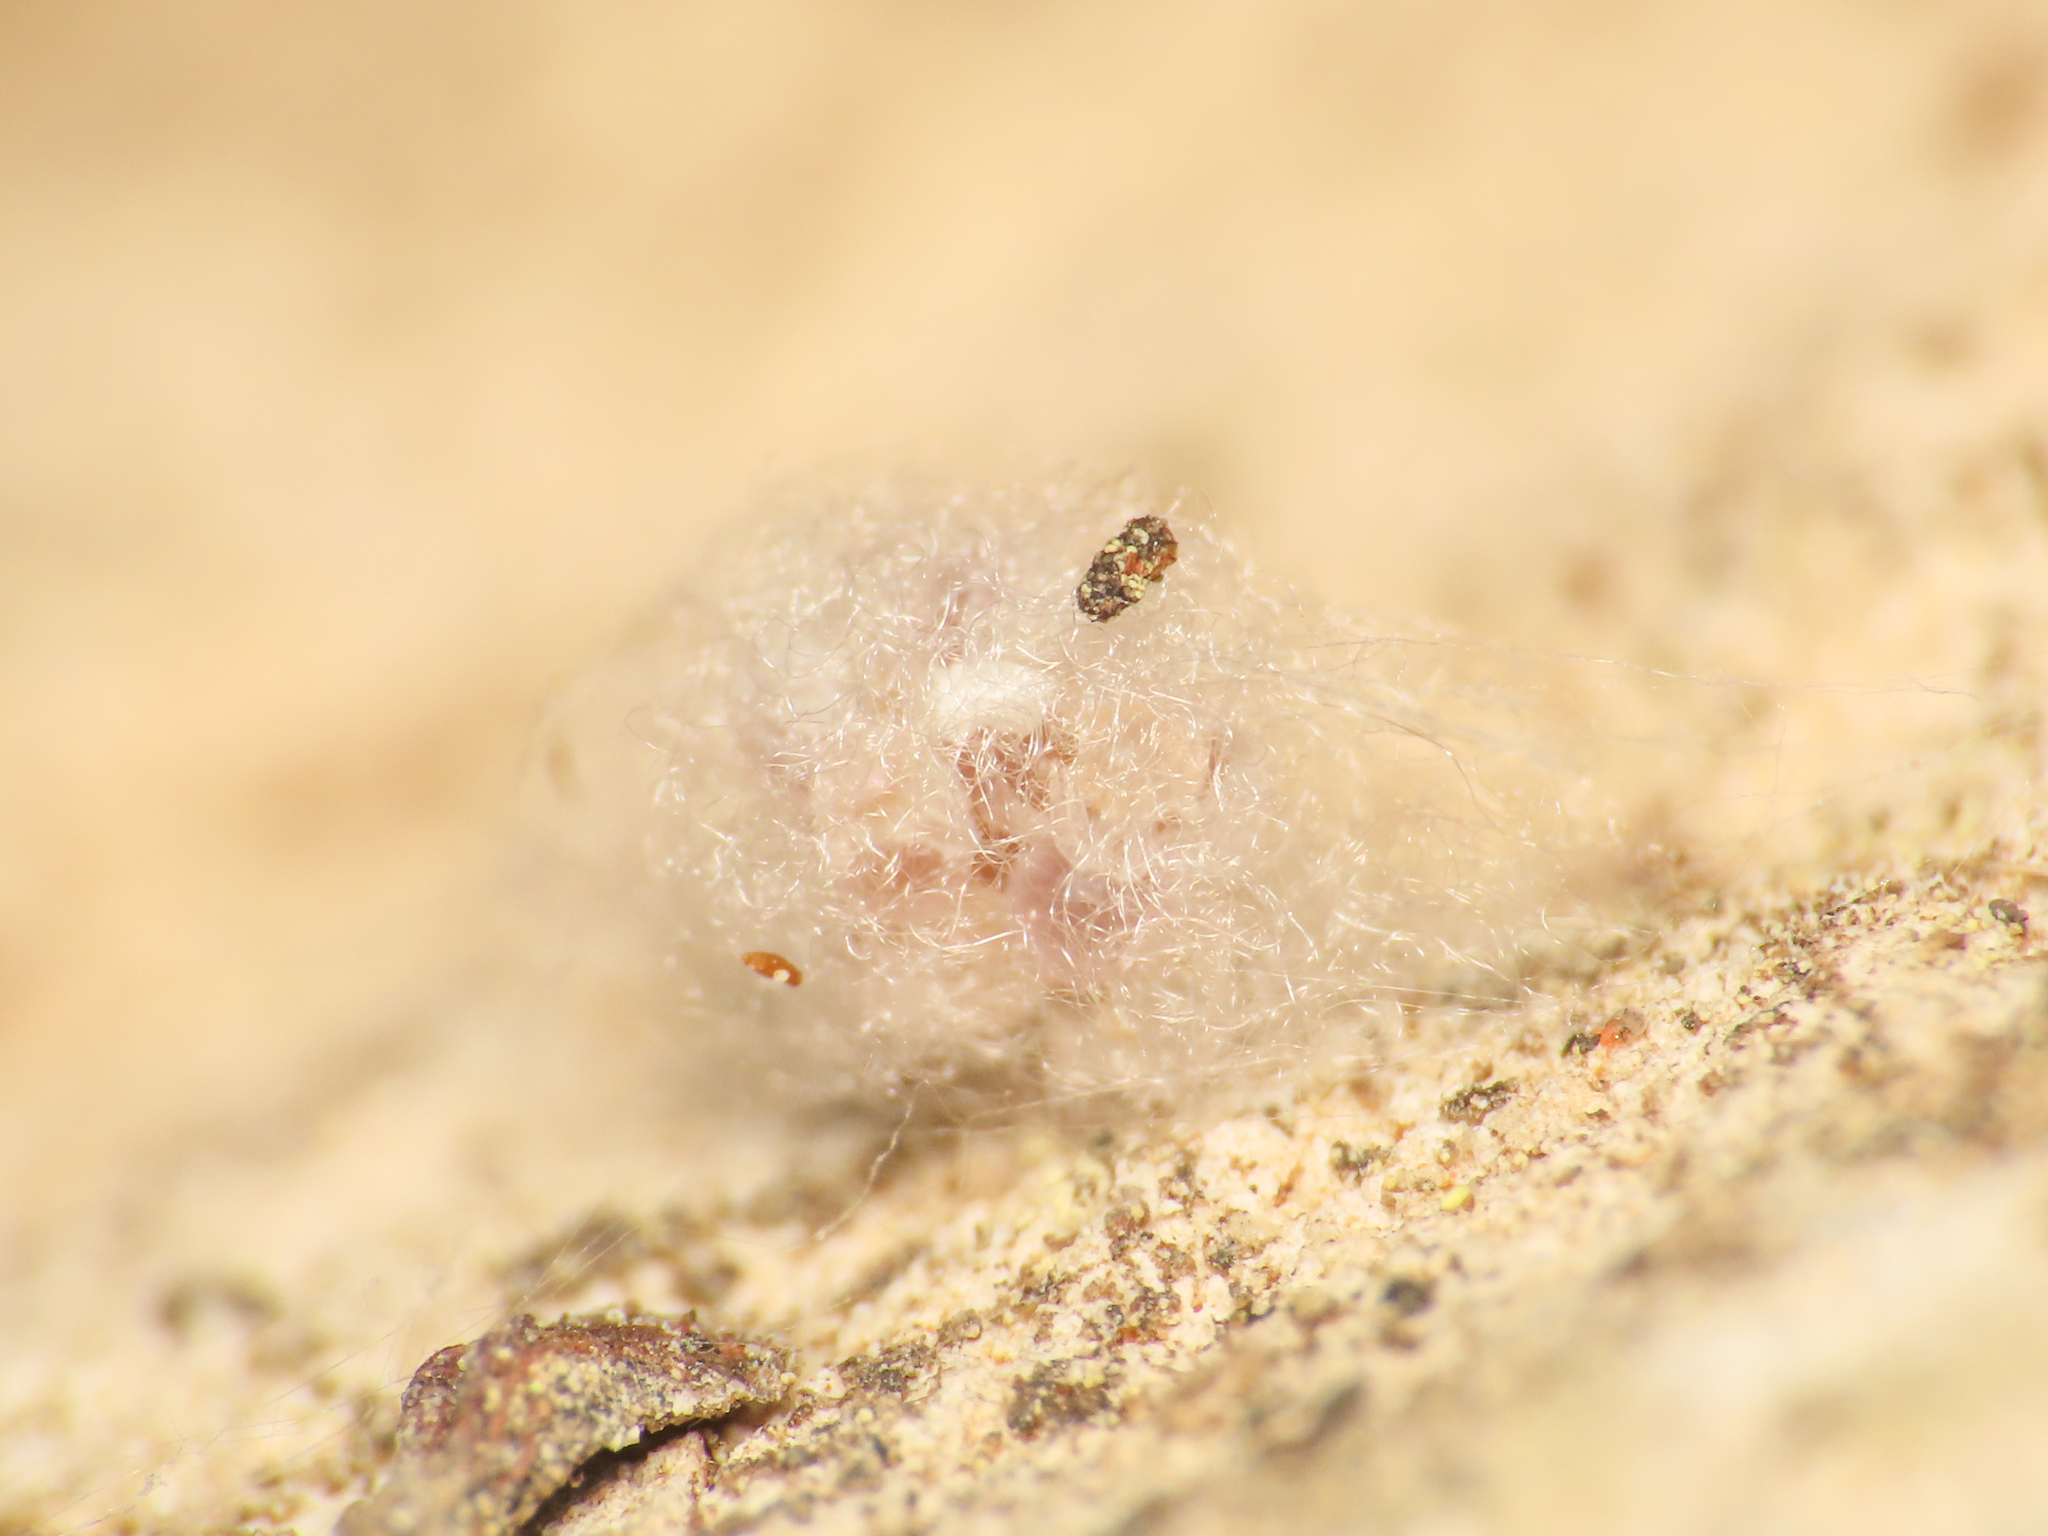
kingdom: Animalia
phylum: Arthropoda
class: Arachnida
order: Araneae
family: Theridiidae
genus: Crustulina
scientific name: Crustulina scabripes
